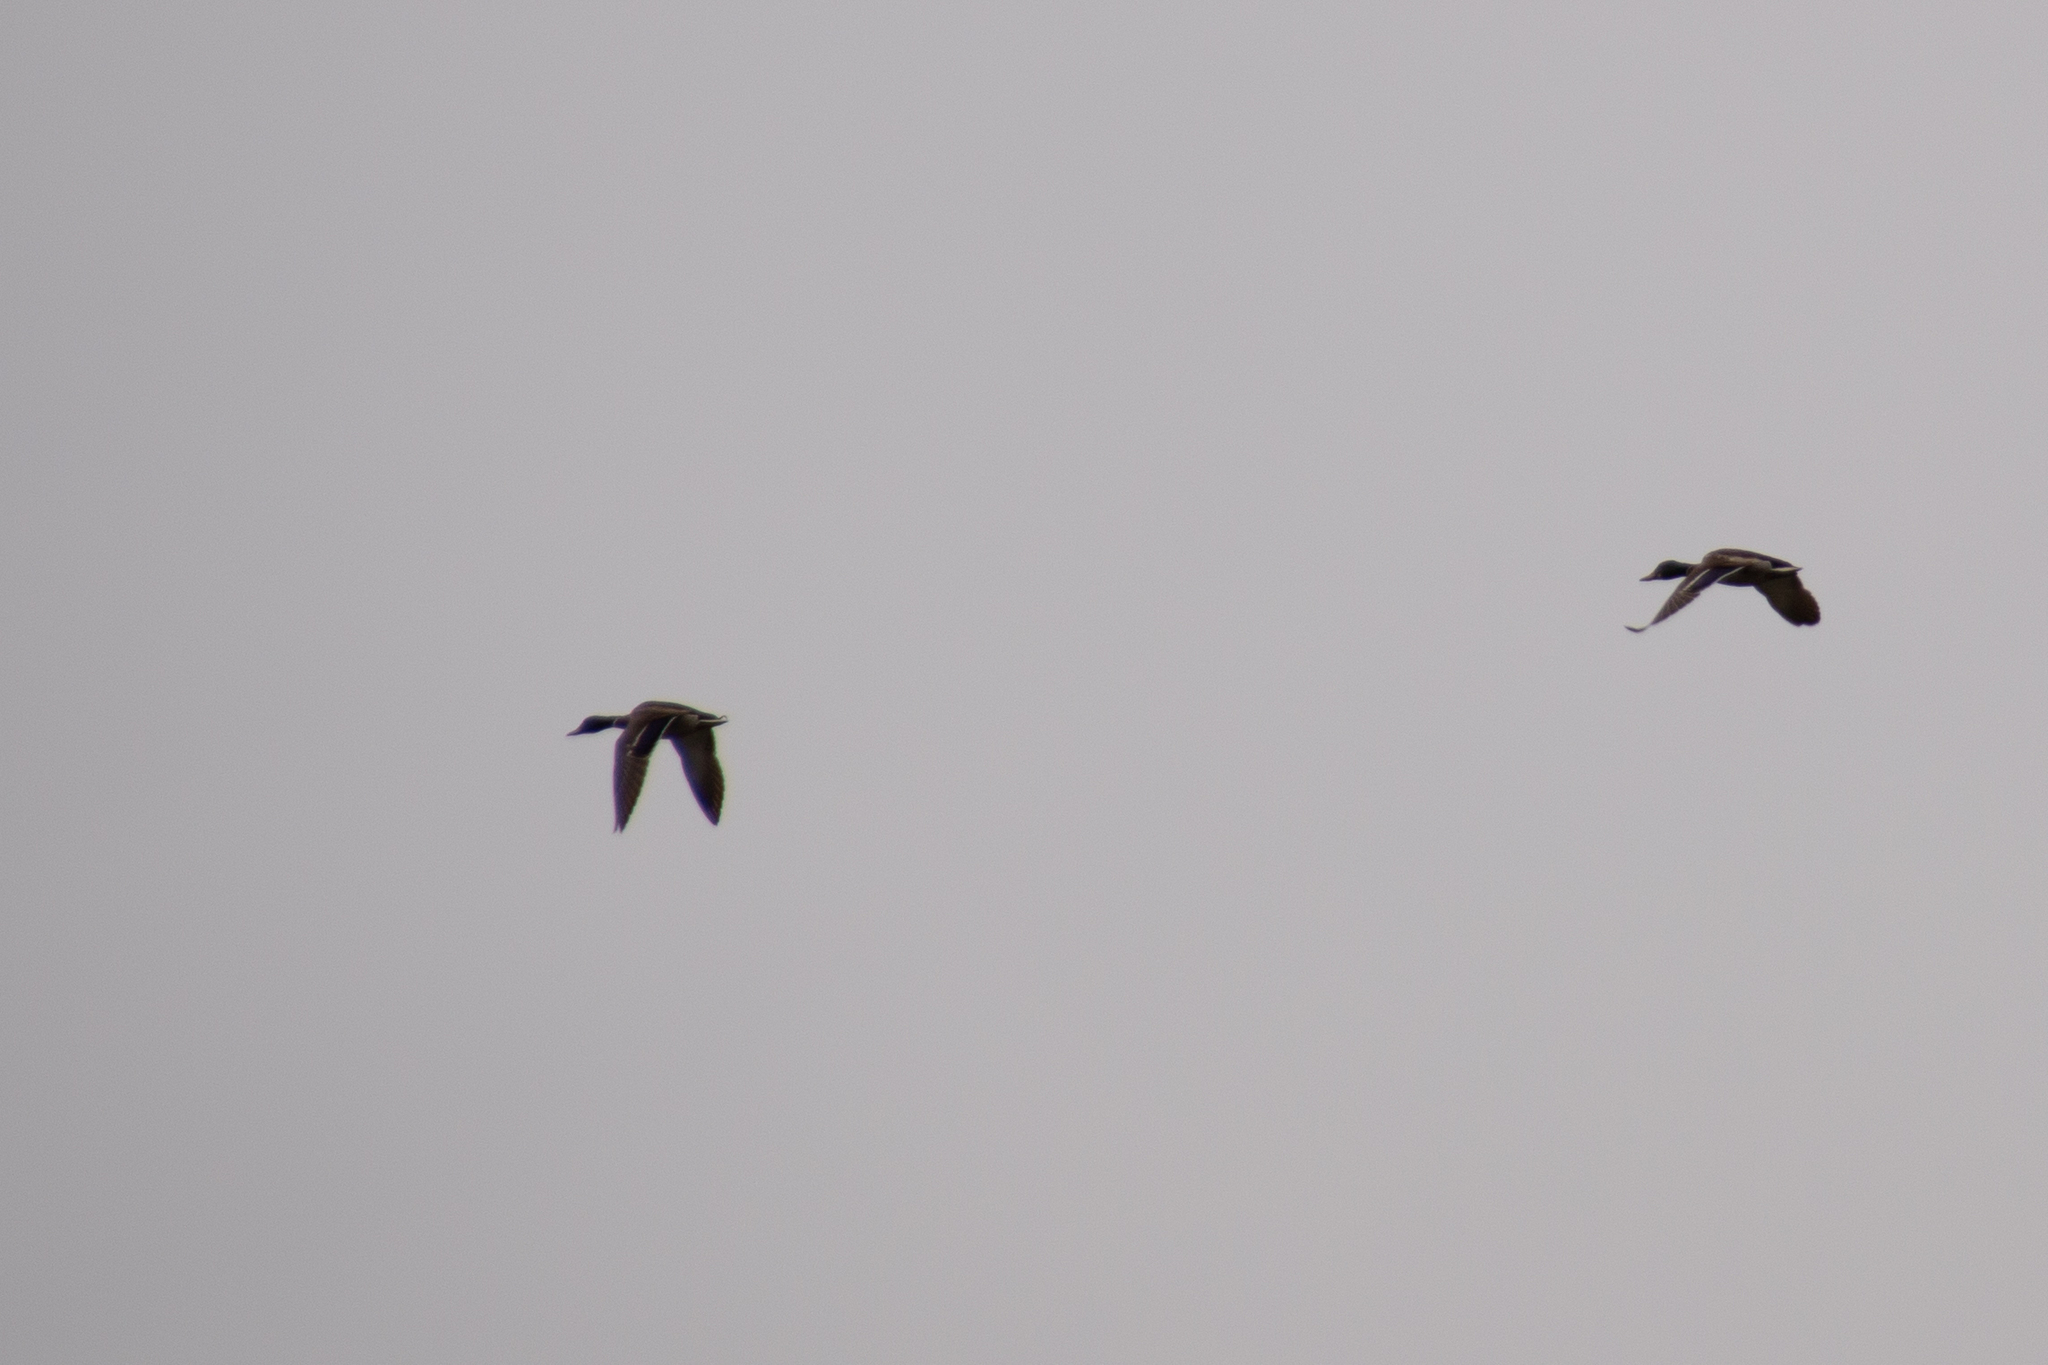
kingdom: Animalia
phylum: Chordata
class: Aves
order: Anseriformes
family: Anatidae
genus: Anas
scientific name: Anas platyrhynchos
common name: Mallard
